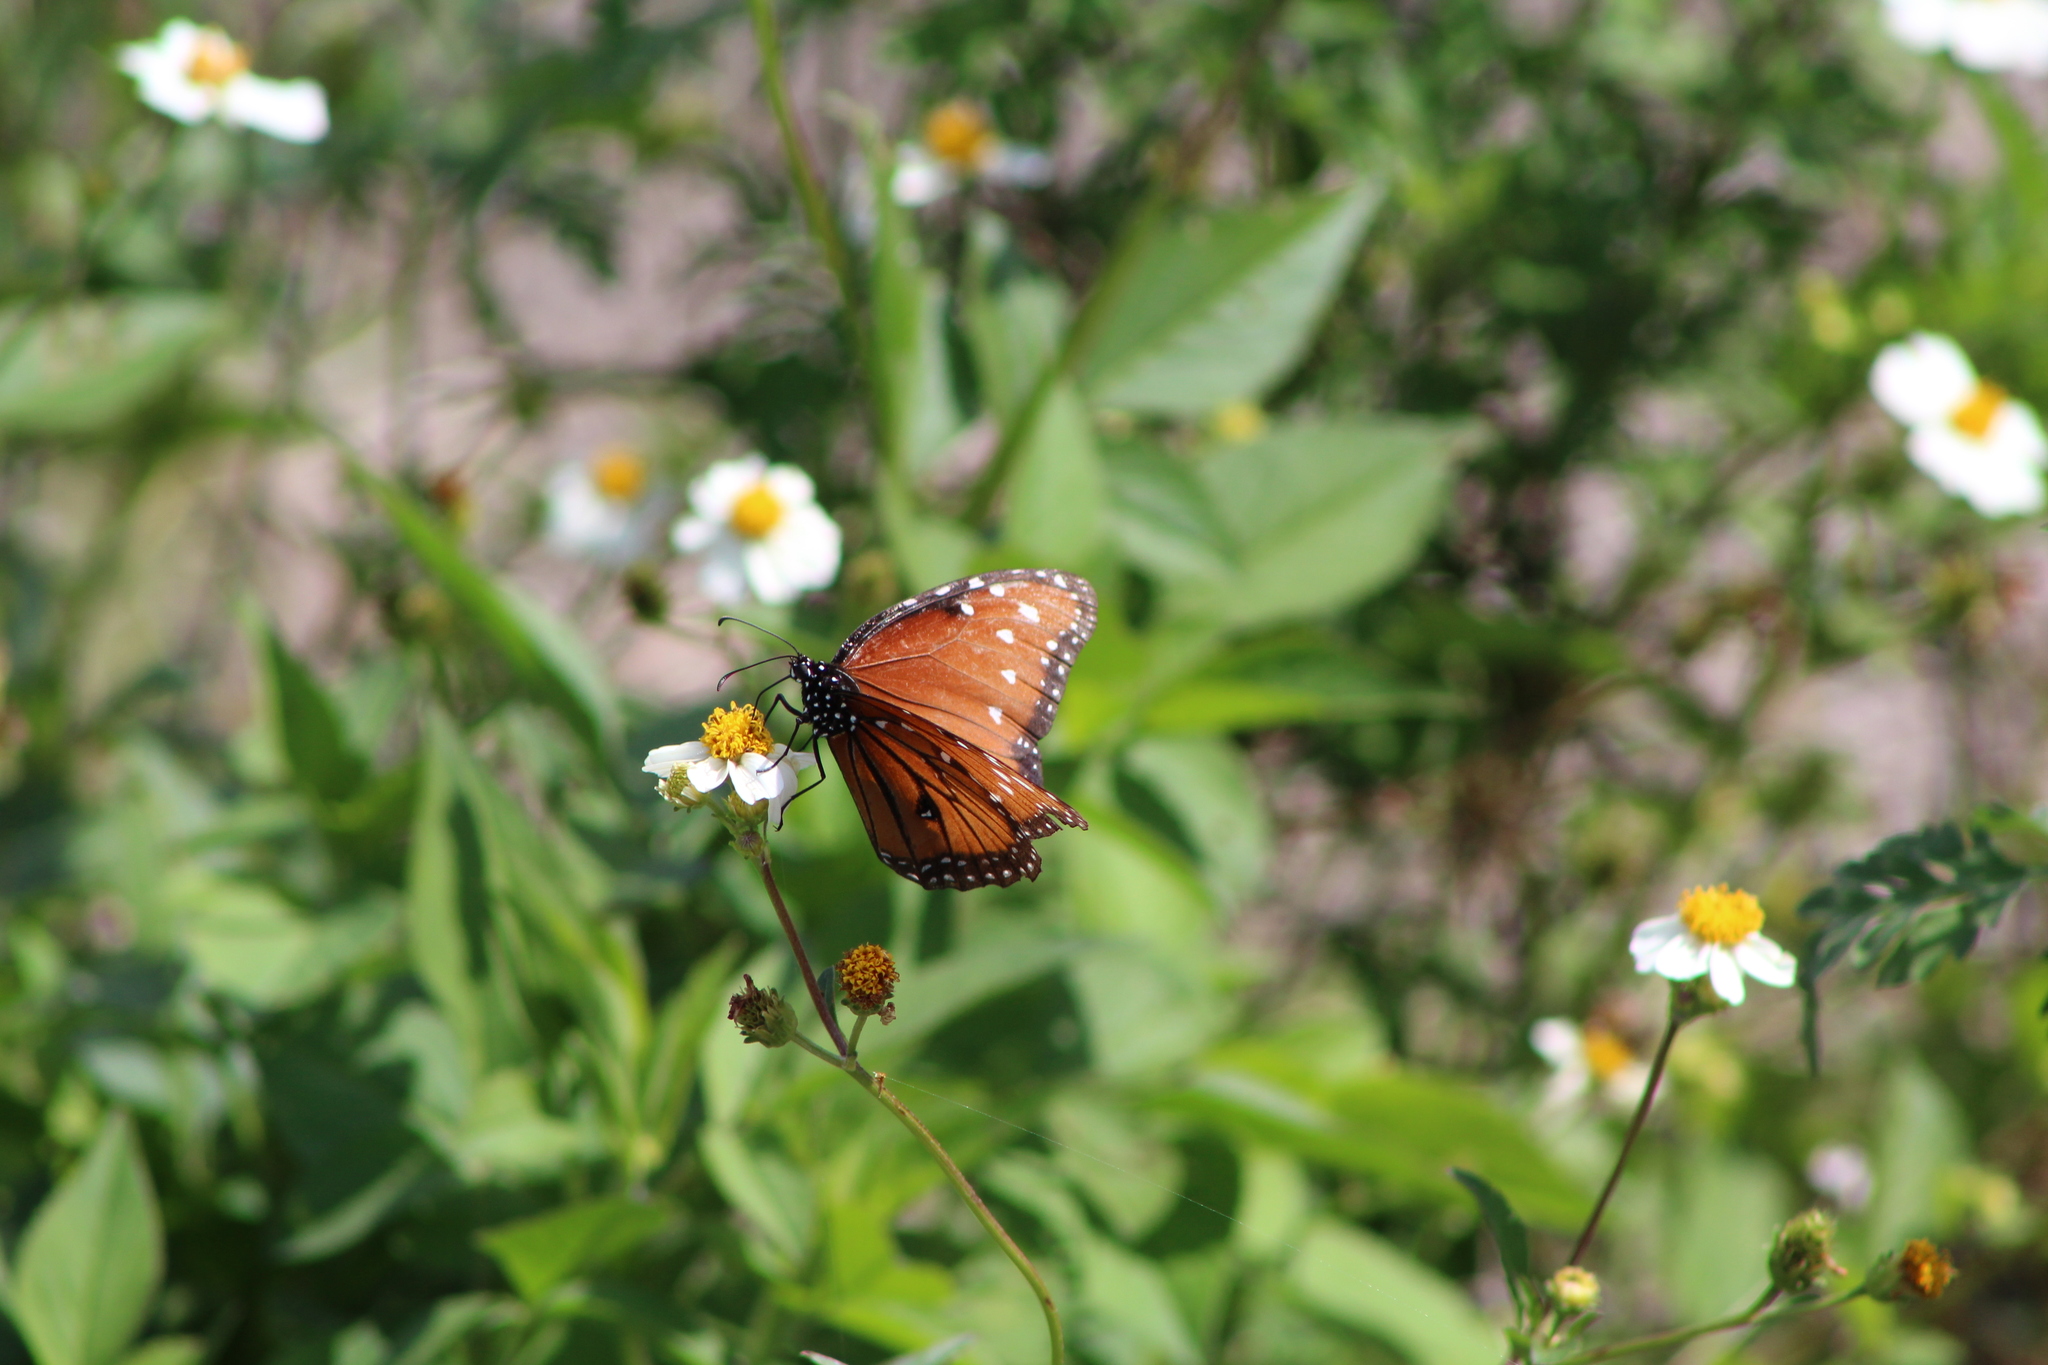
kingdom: Animalia
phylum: Arthropoda
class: Insecta
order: Lepidoptera
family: Nymphalidae
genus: Danaus
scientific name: Danaus gilippus
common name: Queen
